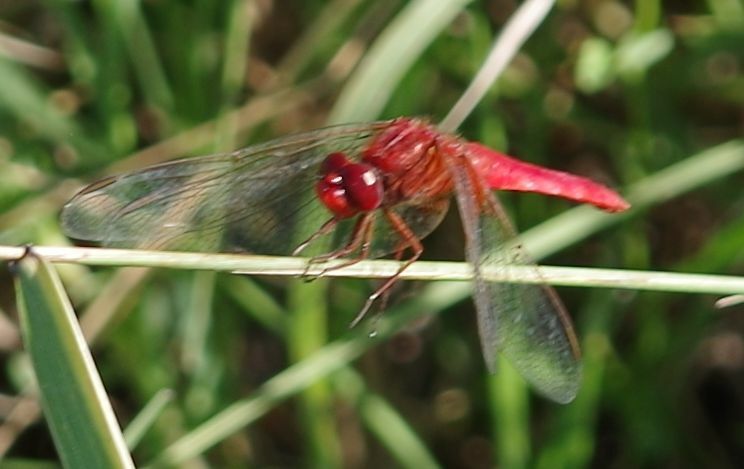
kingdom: Animalia
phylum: Arthropoda
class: Insecta
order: Odonata
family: Libellulidae
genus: Crocothemis
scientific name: Crocothemis erythraea
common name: Scarlet dragonfly
